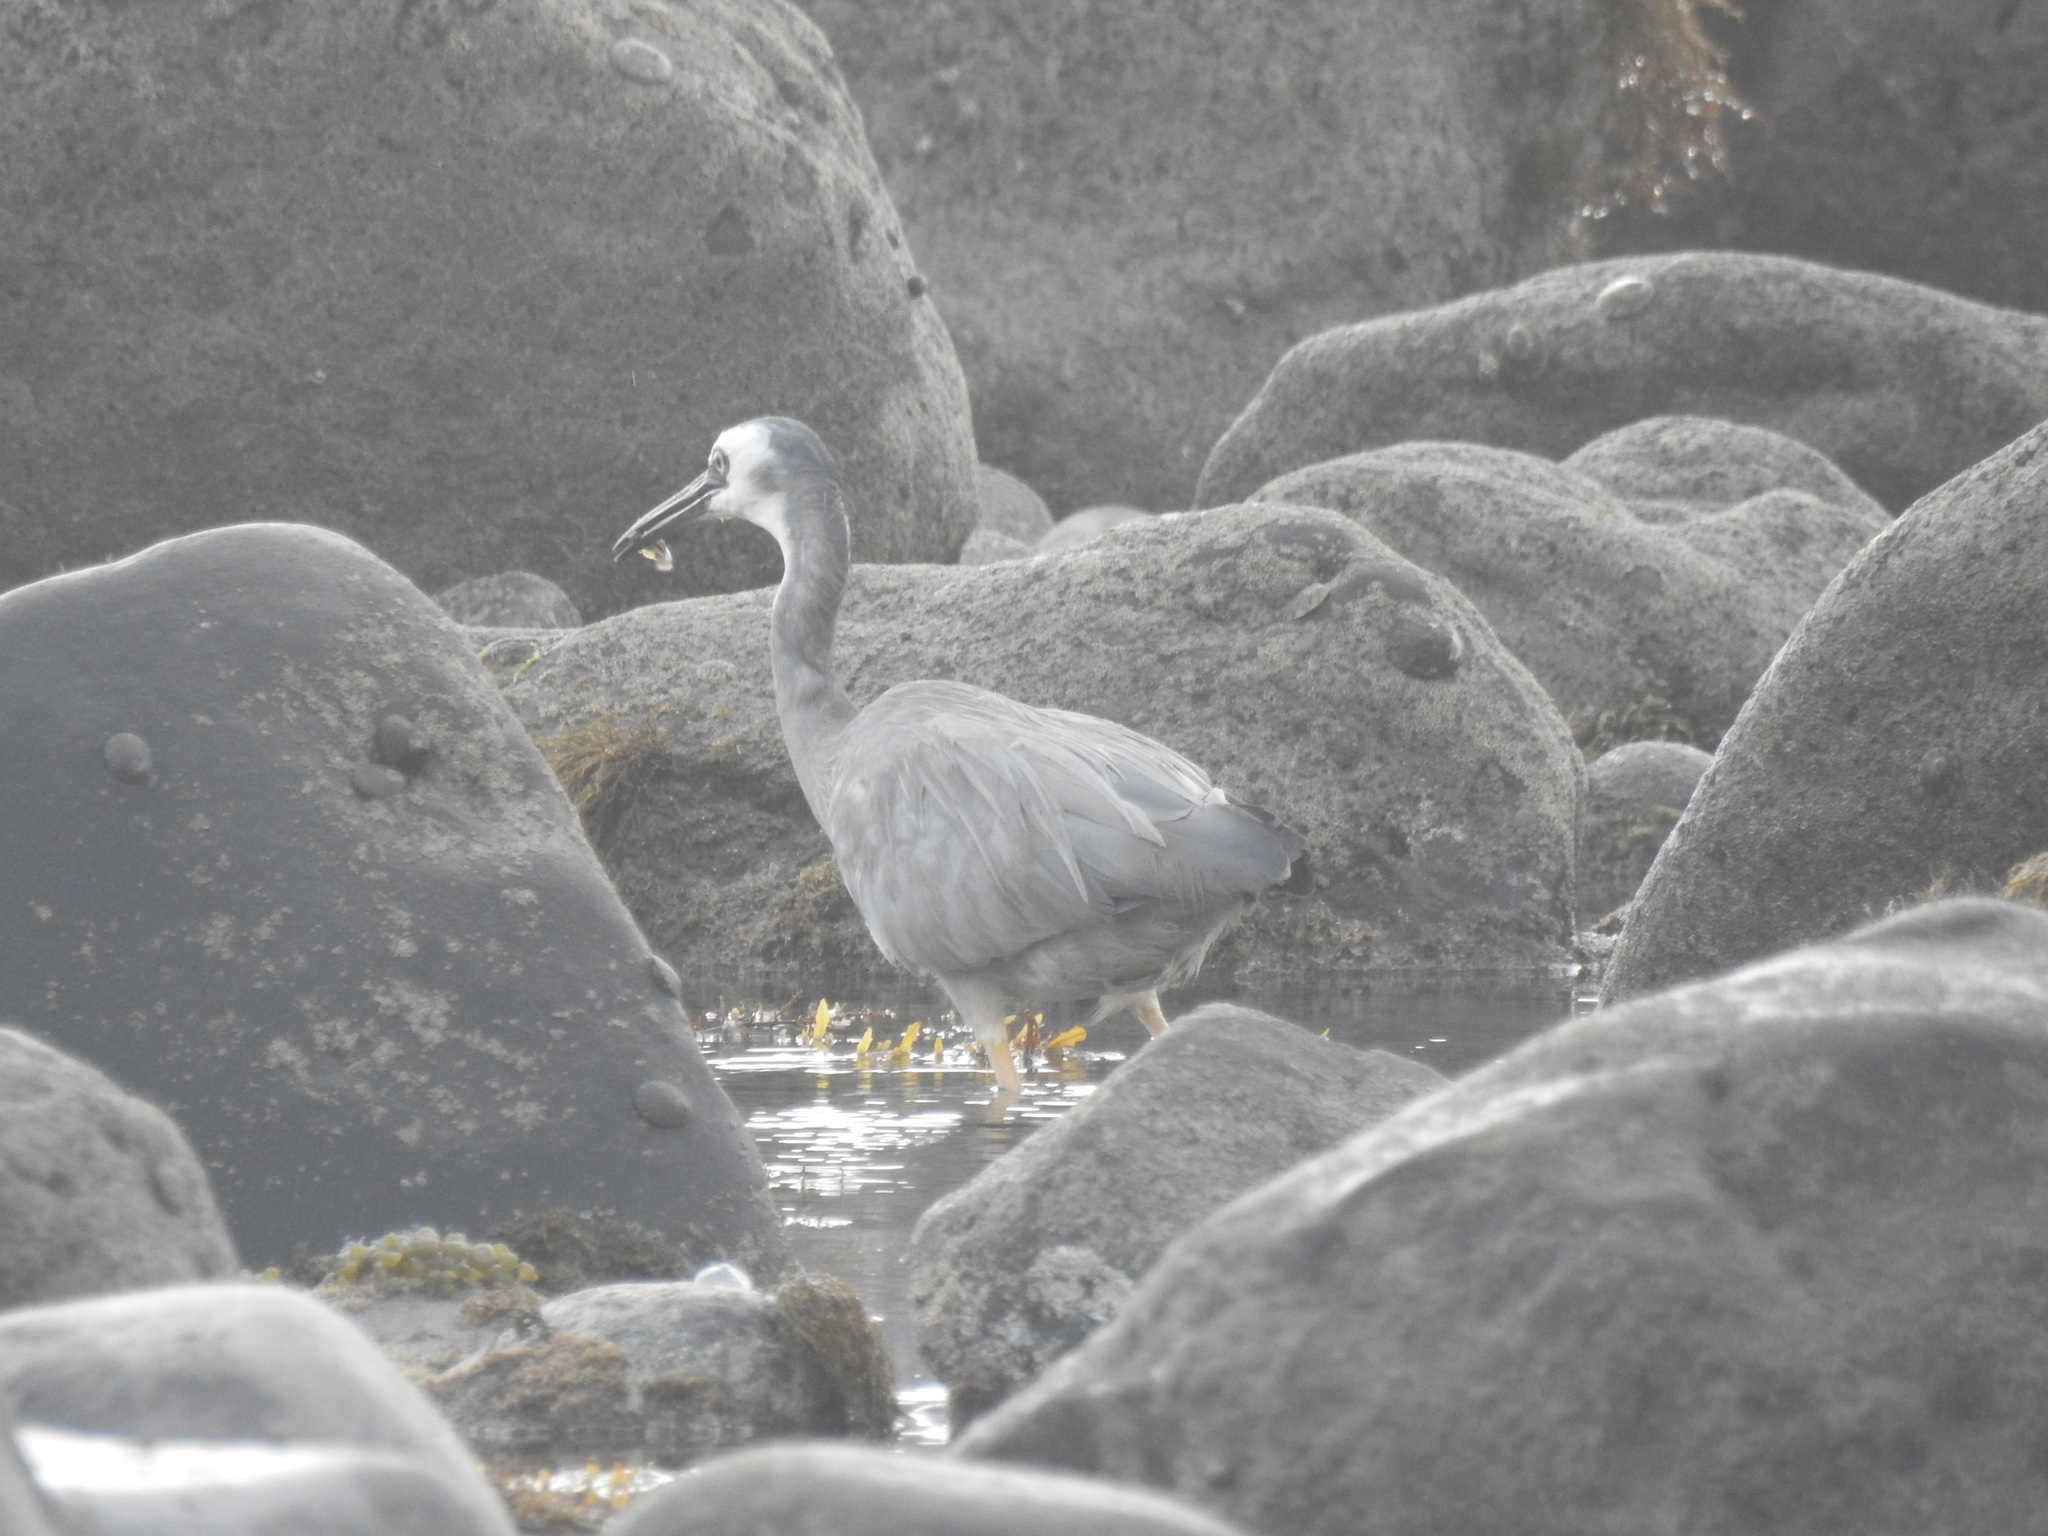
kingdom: Animalia
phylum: Chordata
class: Aves
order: Pelecaniformes
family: Ardeidae
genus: Egretta
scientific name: Egretta novaehollandiae
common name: White-faced heron
